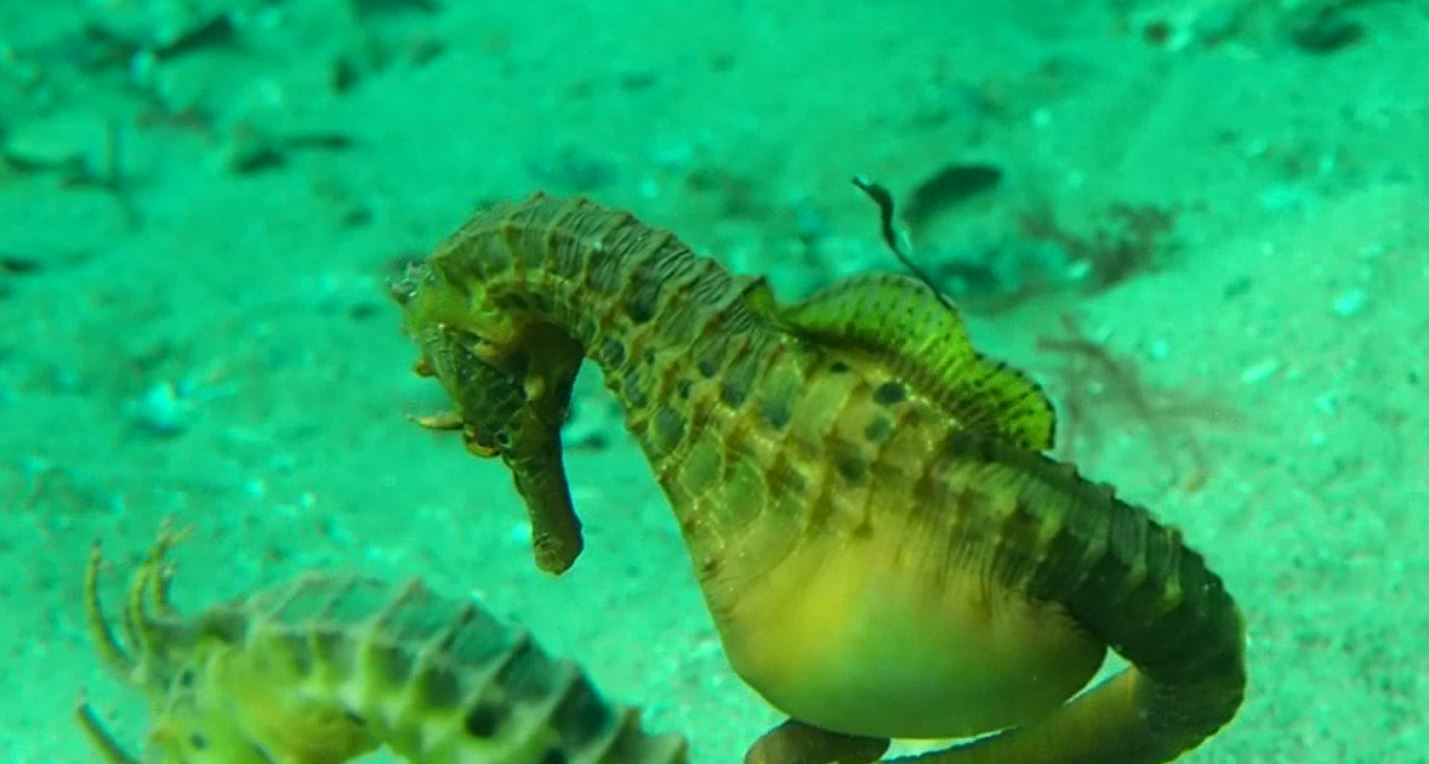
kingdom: Animalia
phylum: Chordata
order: Syngnathiformes
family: Syngnathidae
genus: Hippocampus
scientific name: Hippocampus abdominalis
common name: Big-belly seahorse
